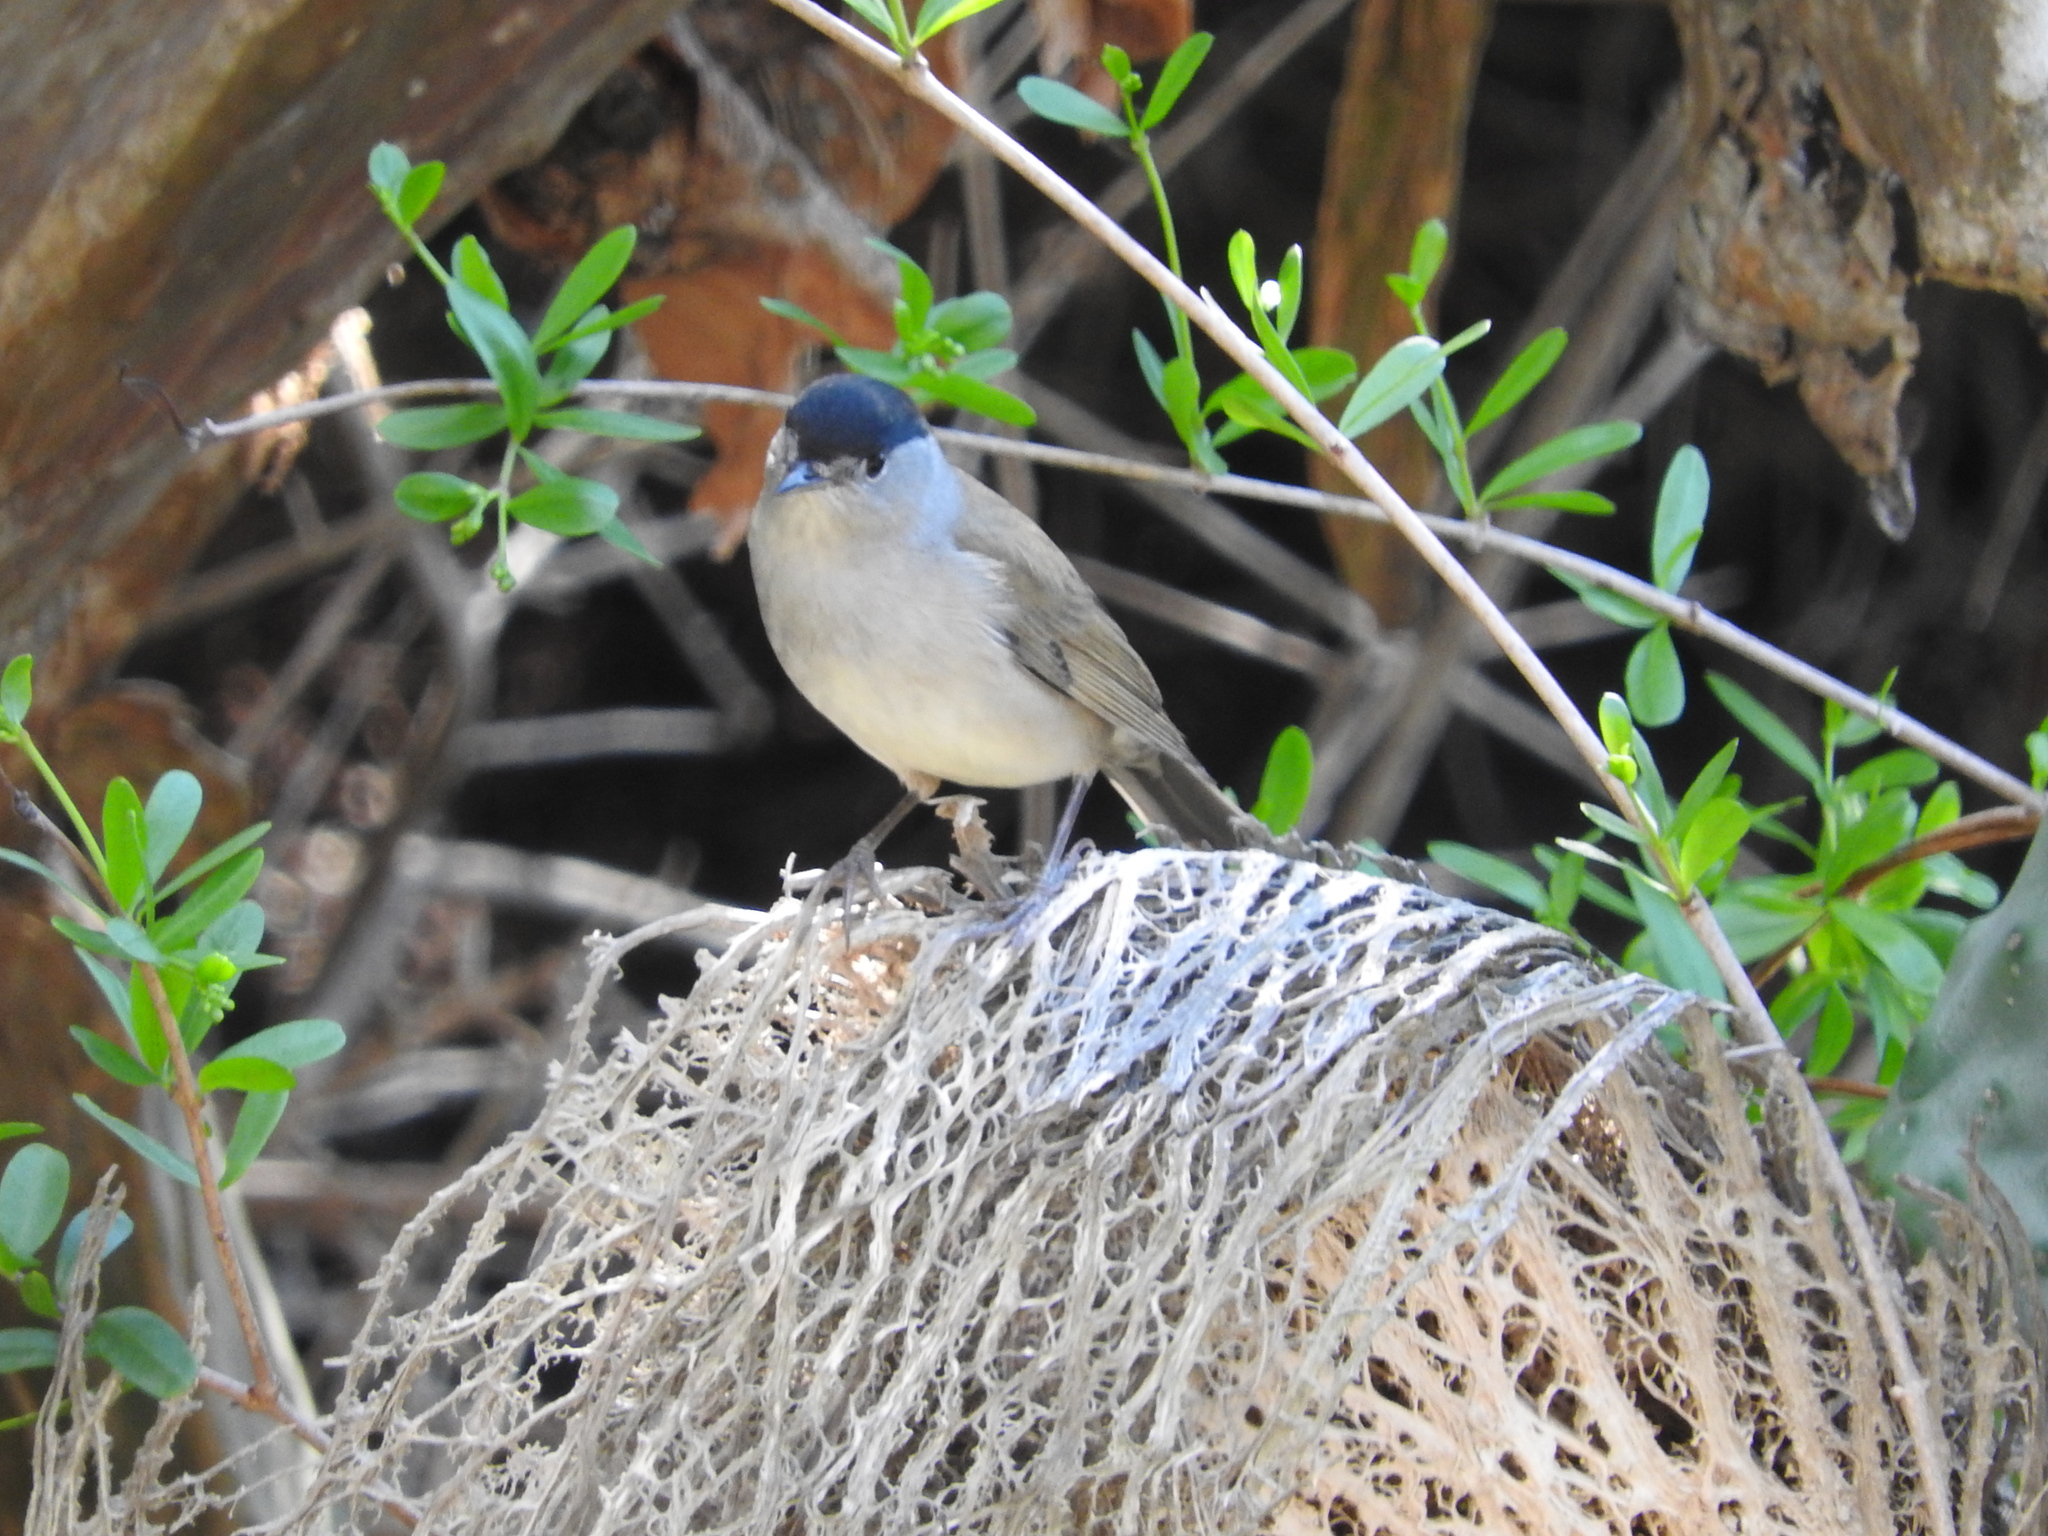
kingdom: Animalia
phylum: Chordata
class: Aves
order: Passeriformes
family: Sylviidae
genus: Sylvia
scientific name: Sylvia atricapilla
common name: Eurasian blackcap
